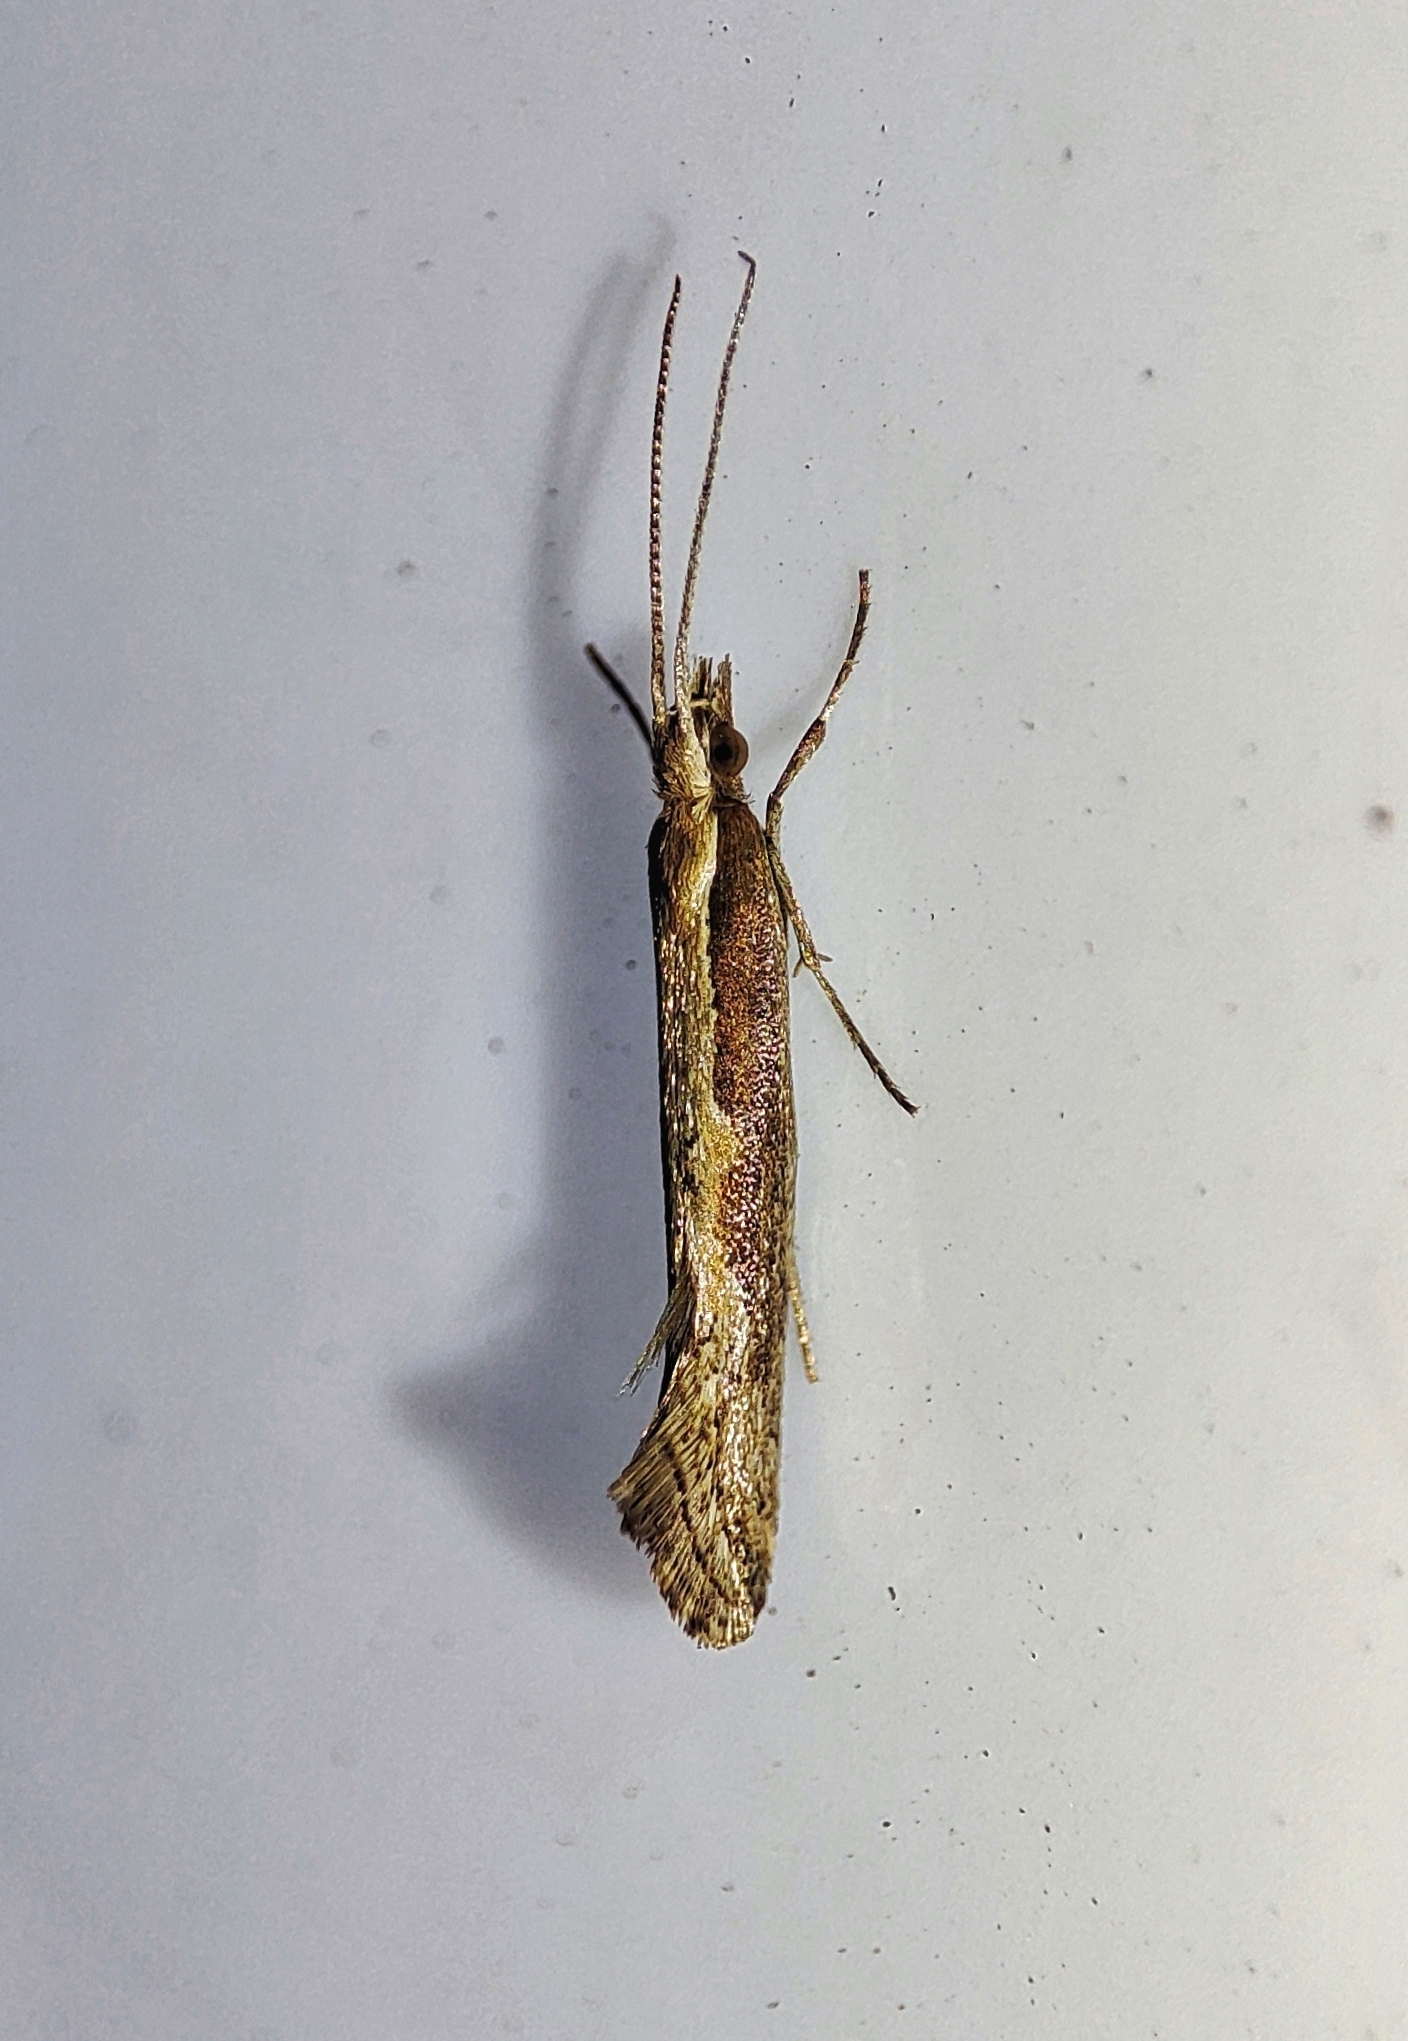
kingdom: Animalia
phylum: Arthropoda
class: Insecta
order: Lepidoptera
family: Plutellidae
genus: Plutella
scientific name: Plutella xylostella
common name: Diamond-back moth
